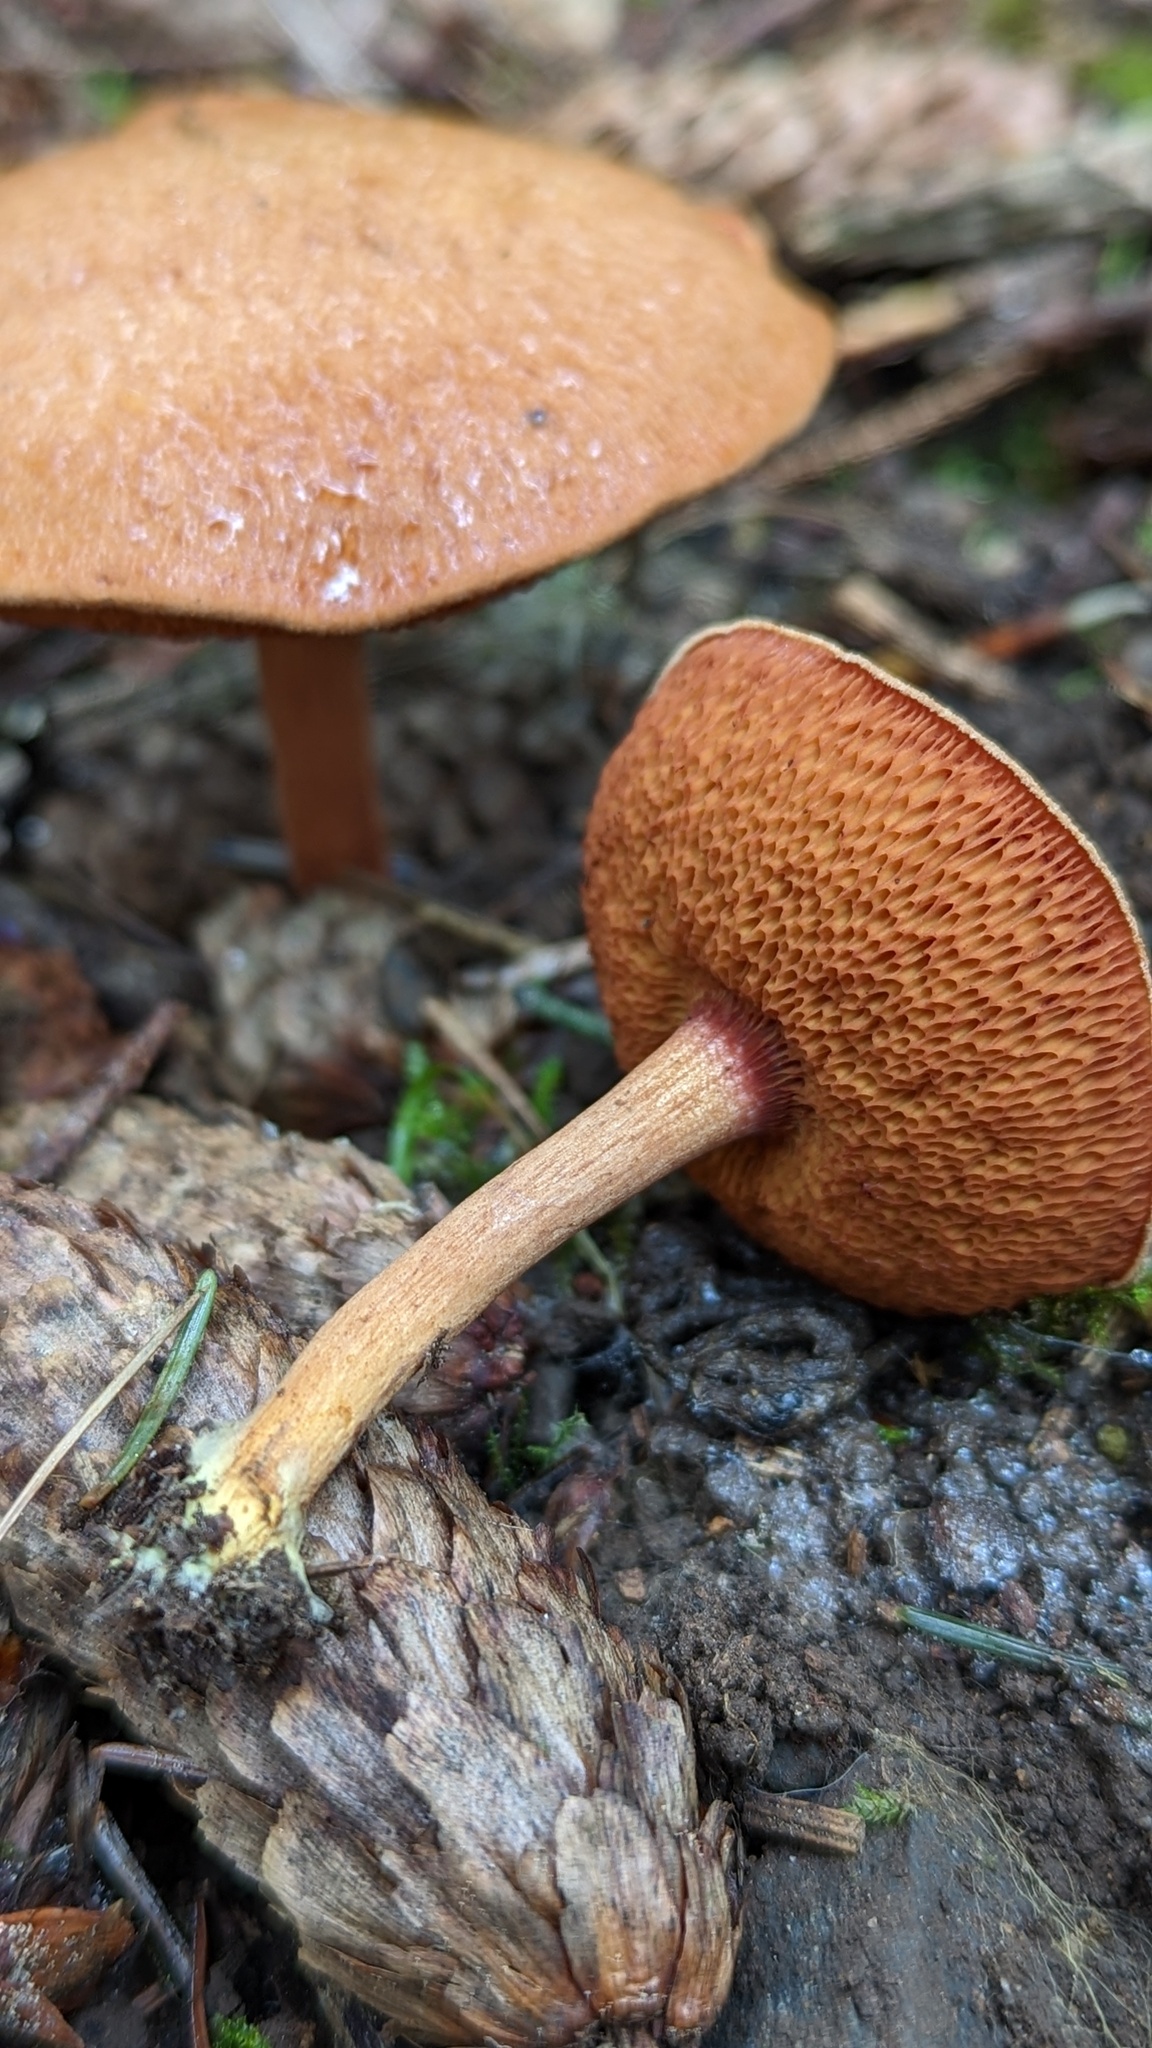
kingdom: Fungi
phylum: Basidiomycota
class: Agaricomycetes
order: Boletales
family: Boletaceae
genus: Chalciporus
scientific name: Chalciporus piperatus
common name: Peppery bolete
